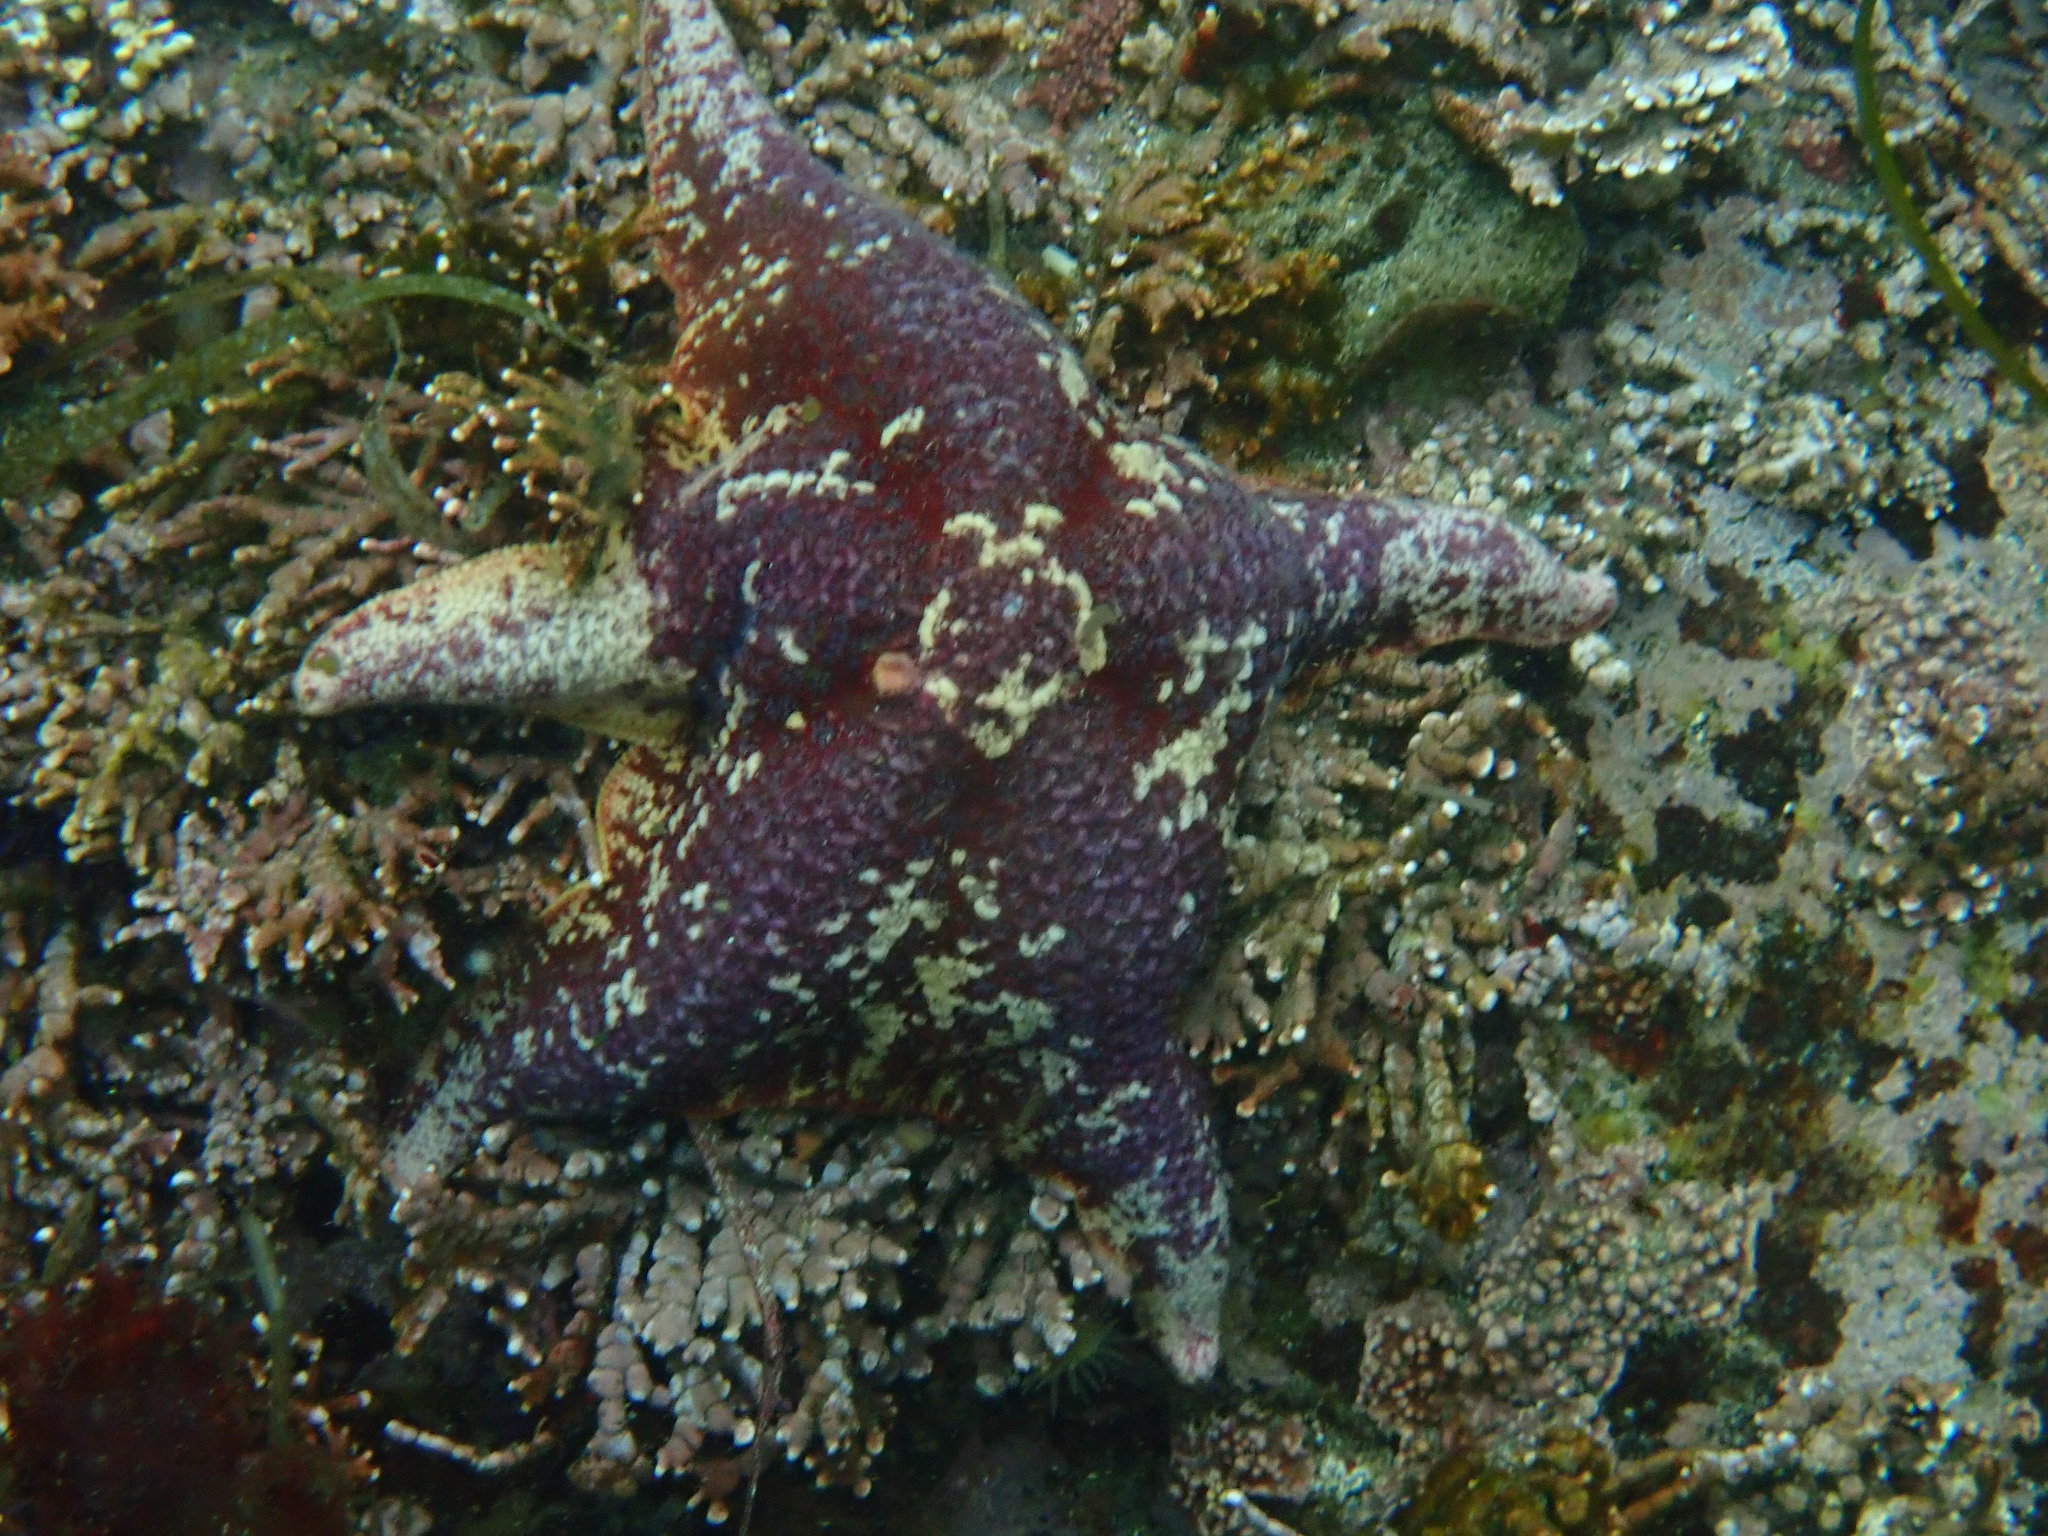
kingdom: Animalia
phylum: Echinodermata
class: Asteroidea
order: Valvatida
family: Asterinidae
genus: Patiria
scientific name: Patiria miniata
